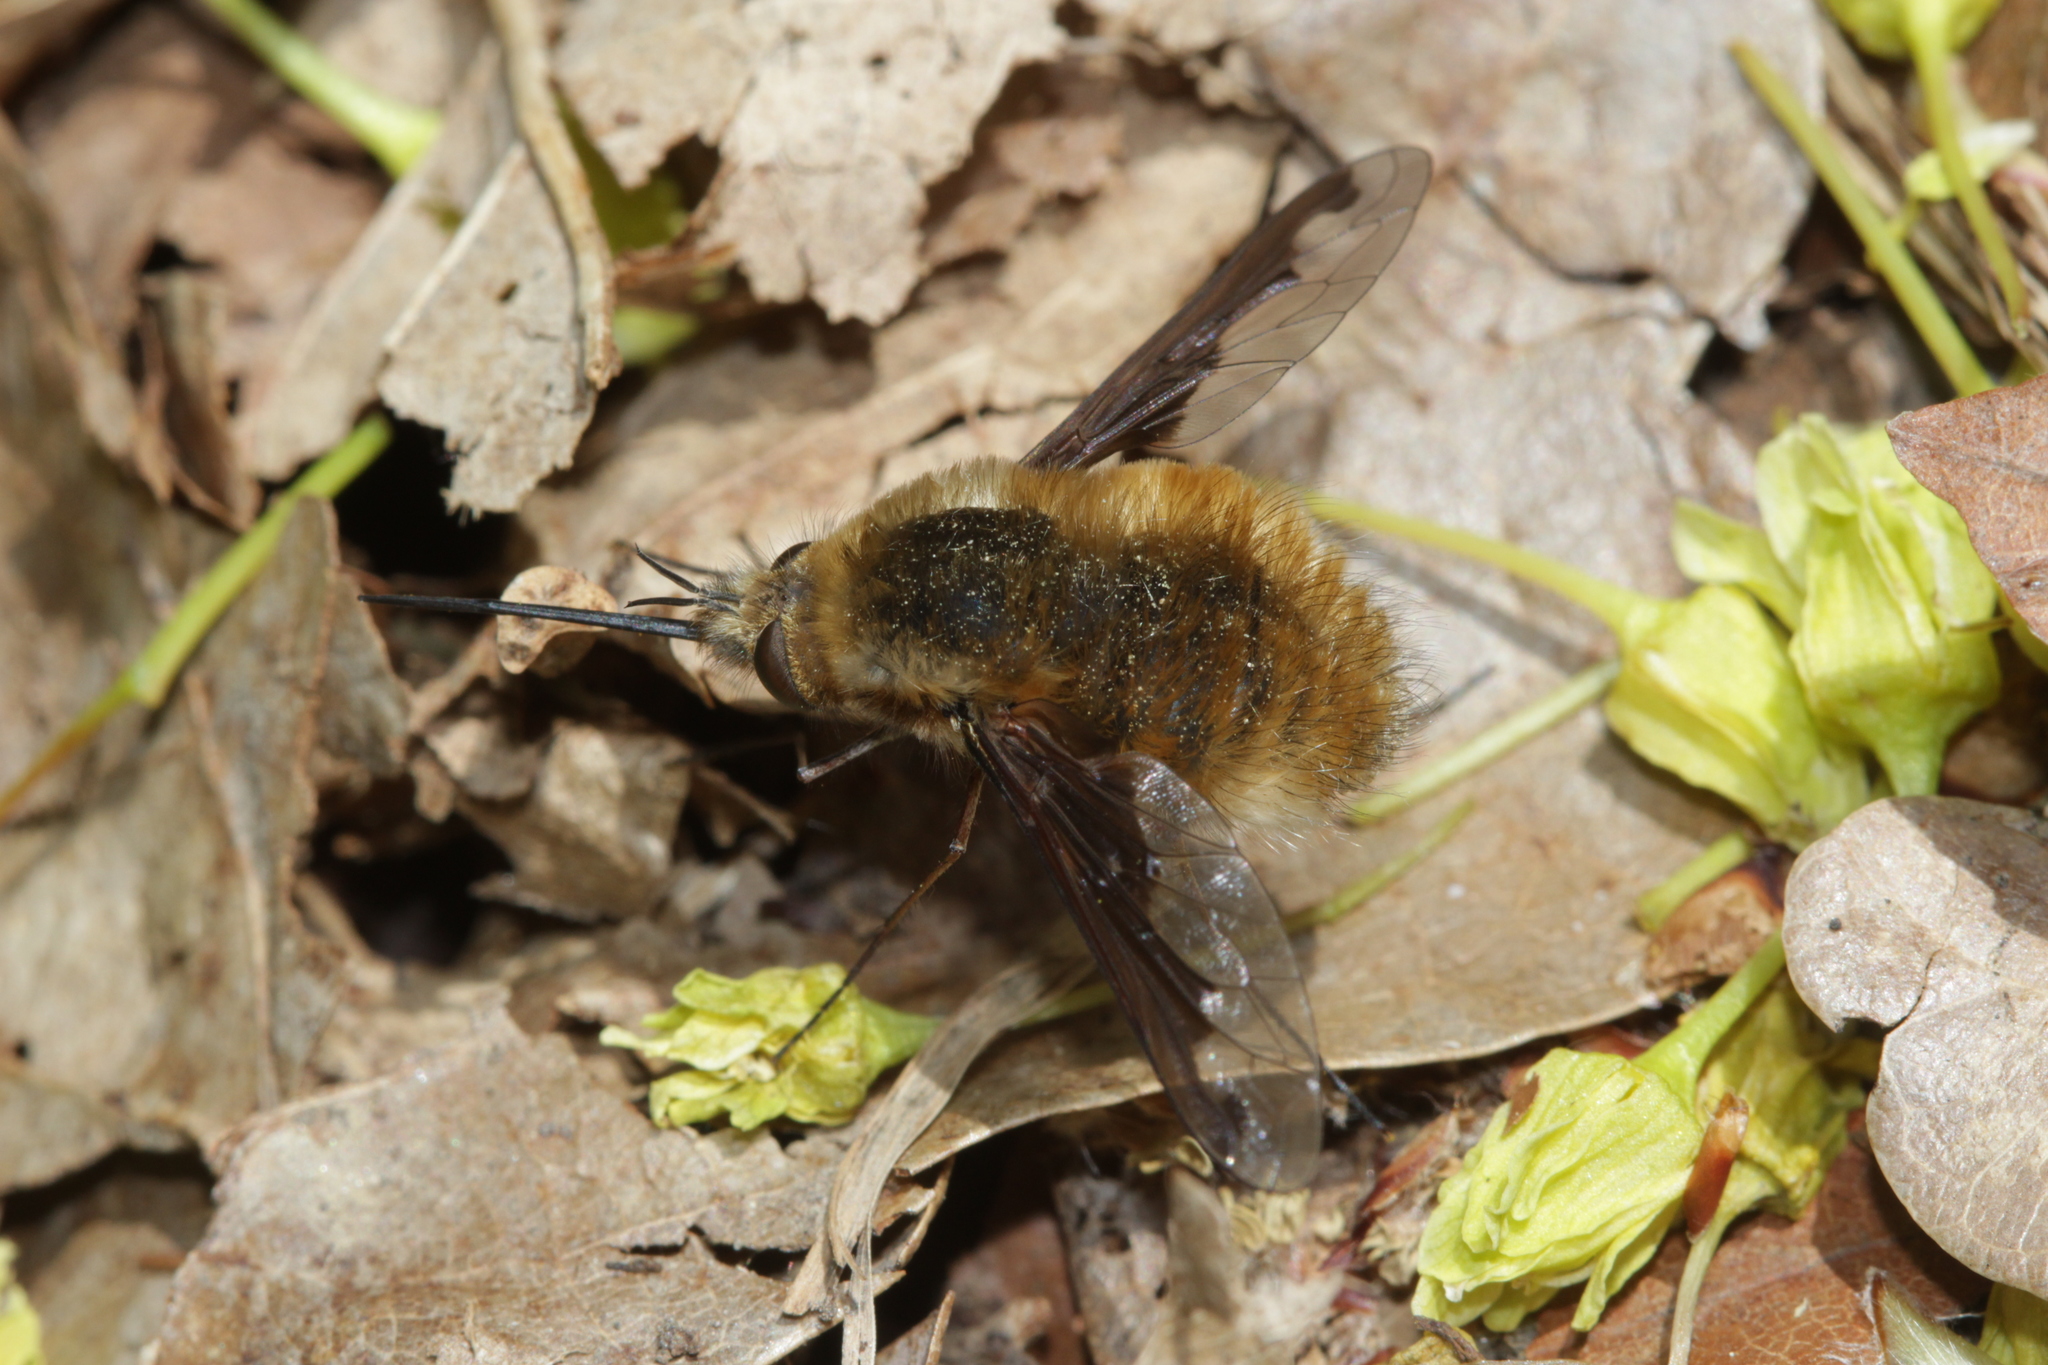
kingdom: Animalia
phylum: Arthropoda
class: Insecta
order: Diptera
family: Bombyliidae
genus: Bombylius
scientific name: Bombylius major
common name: Bee fly
